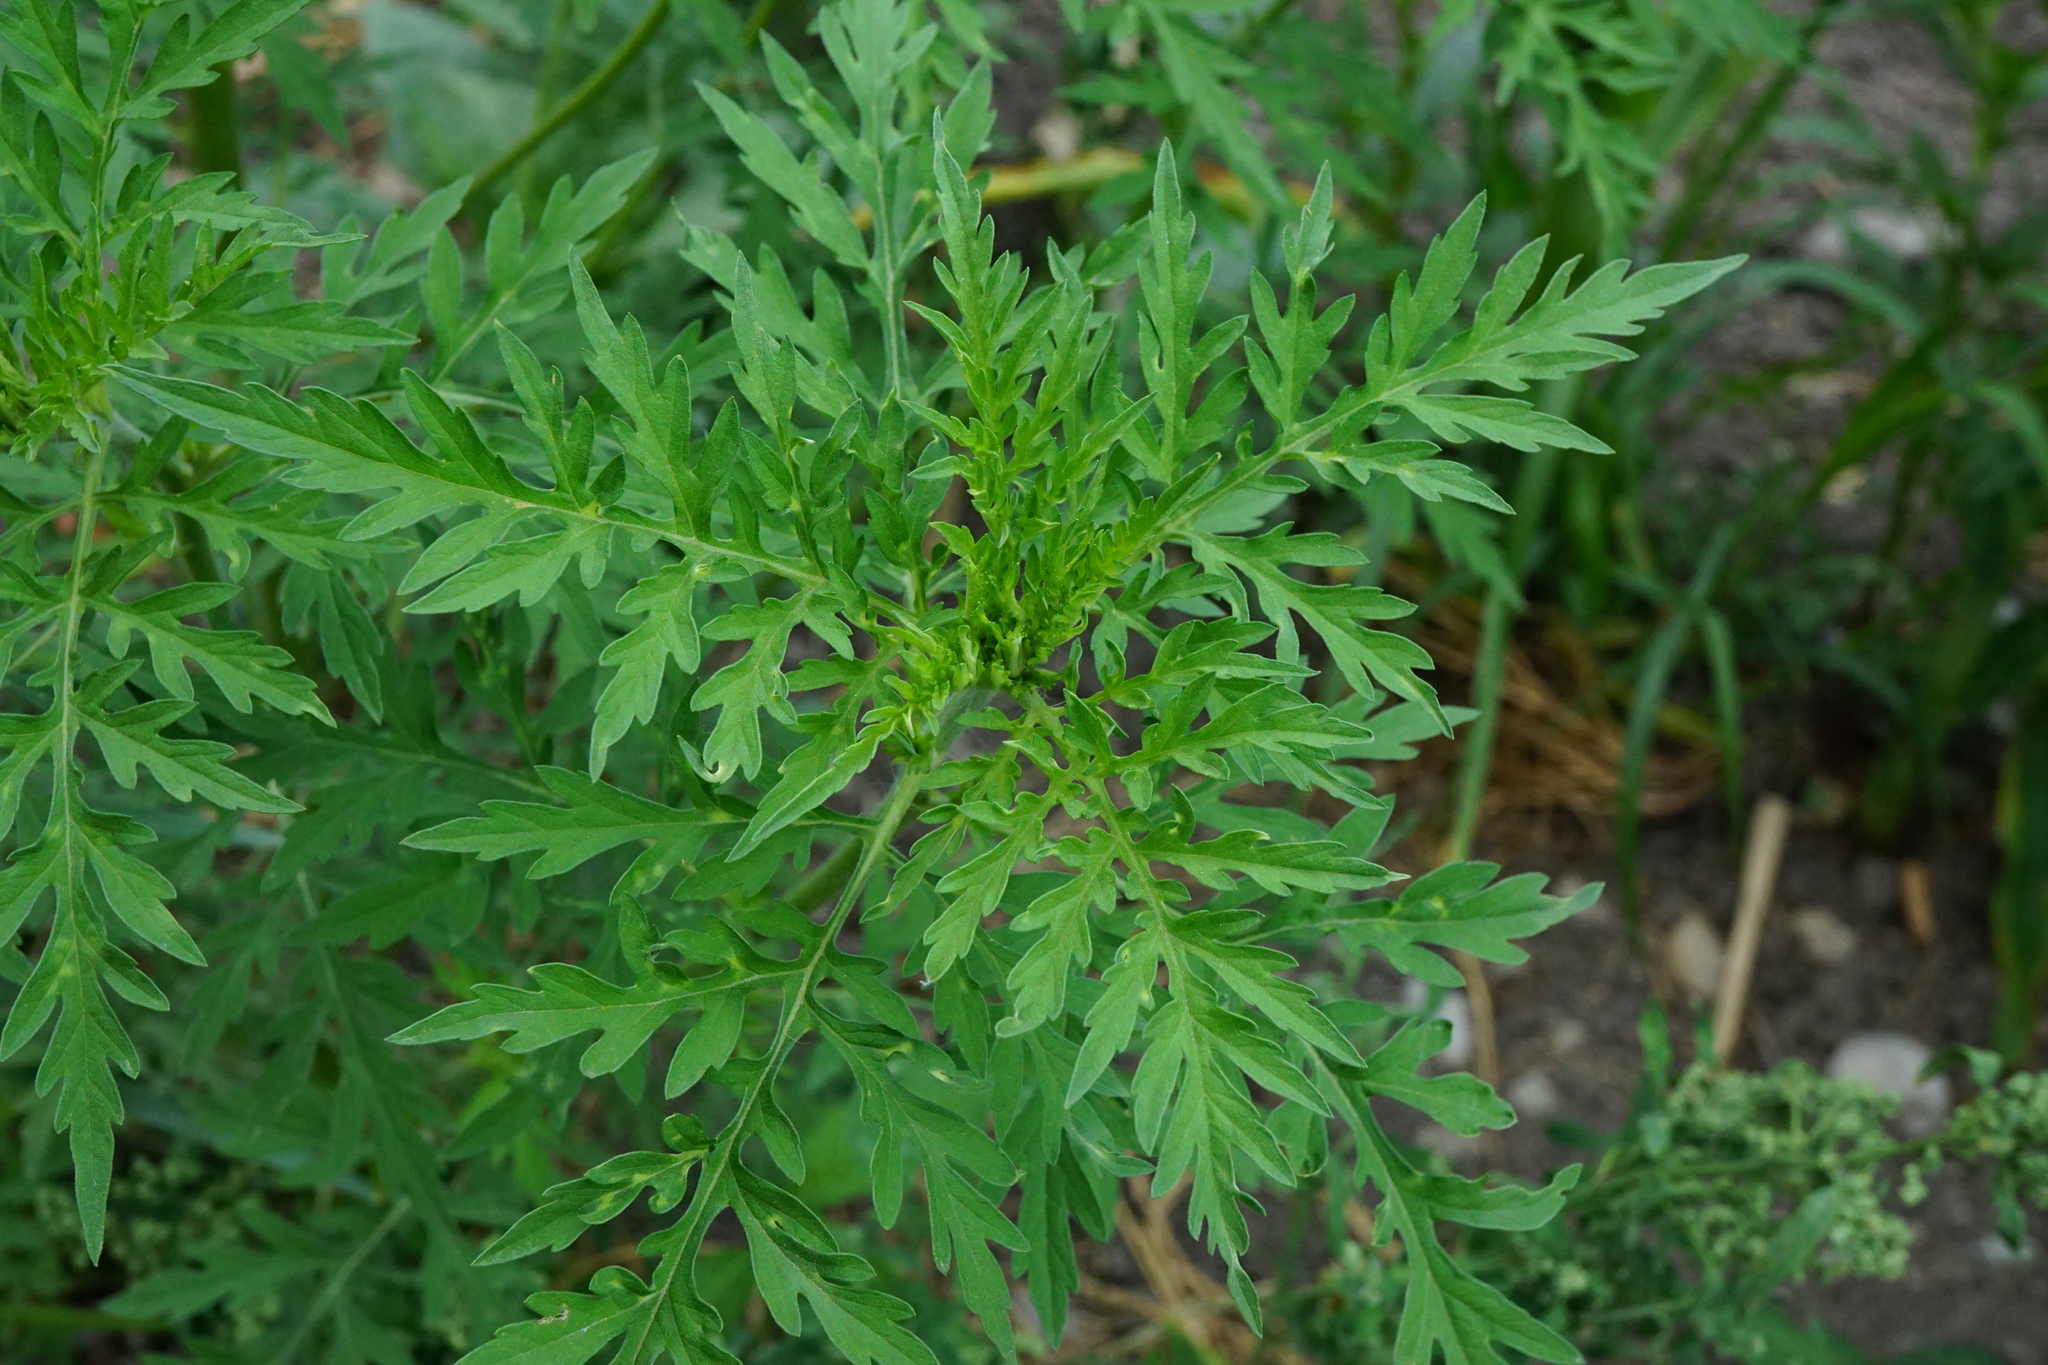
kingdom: Plantae
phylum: Tracheophyta
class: Magnoliopsida
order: Asterales
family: Asteraceae
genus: Ambrosia
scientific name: Ambrosia artemisiifolia
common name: Annual ragweed
